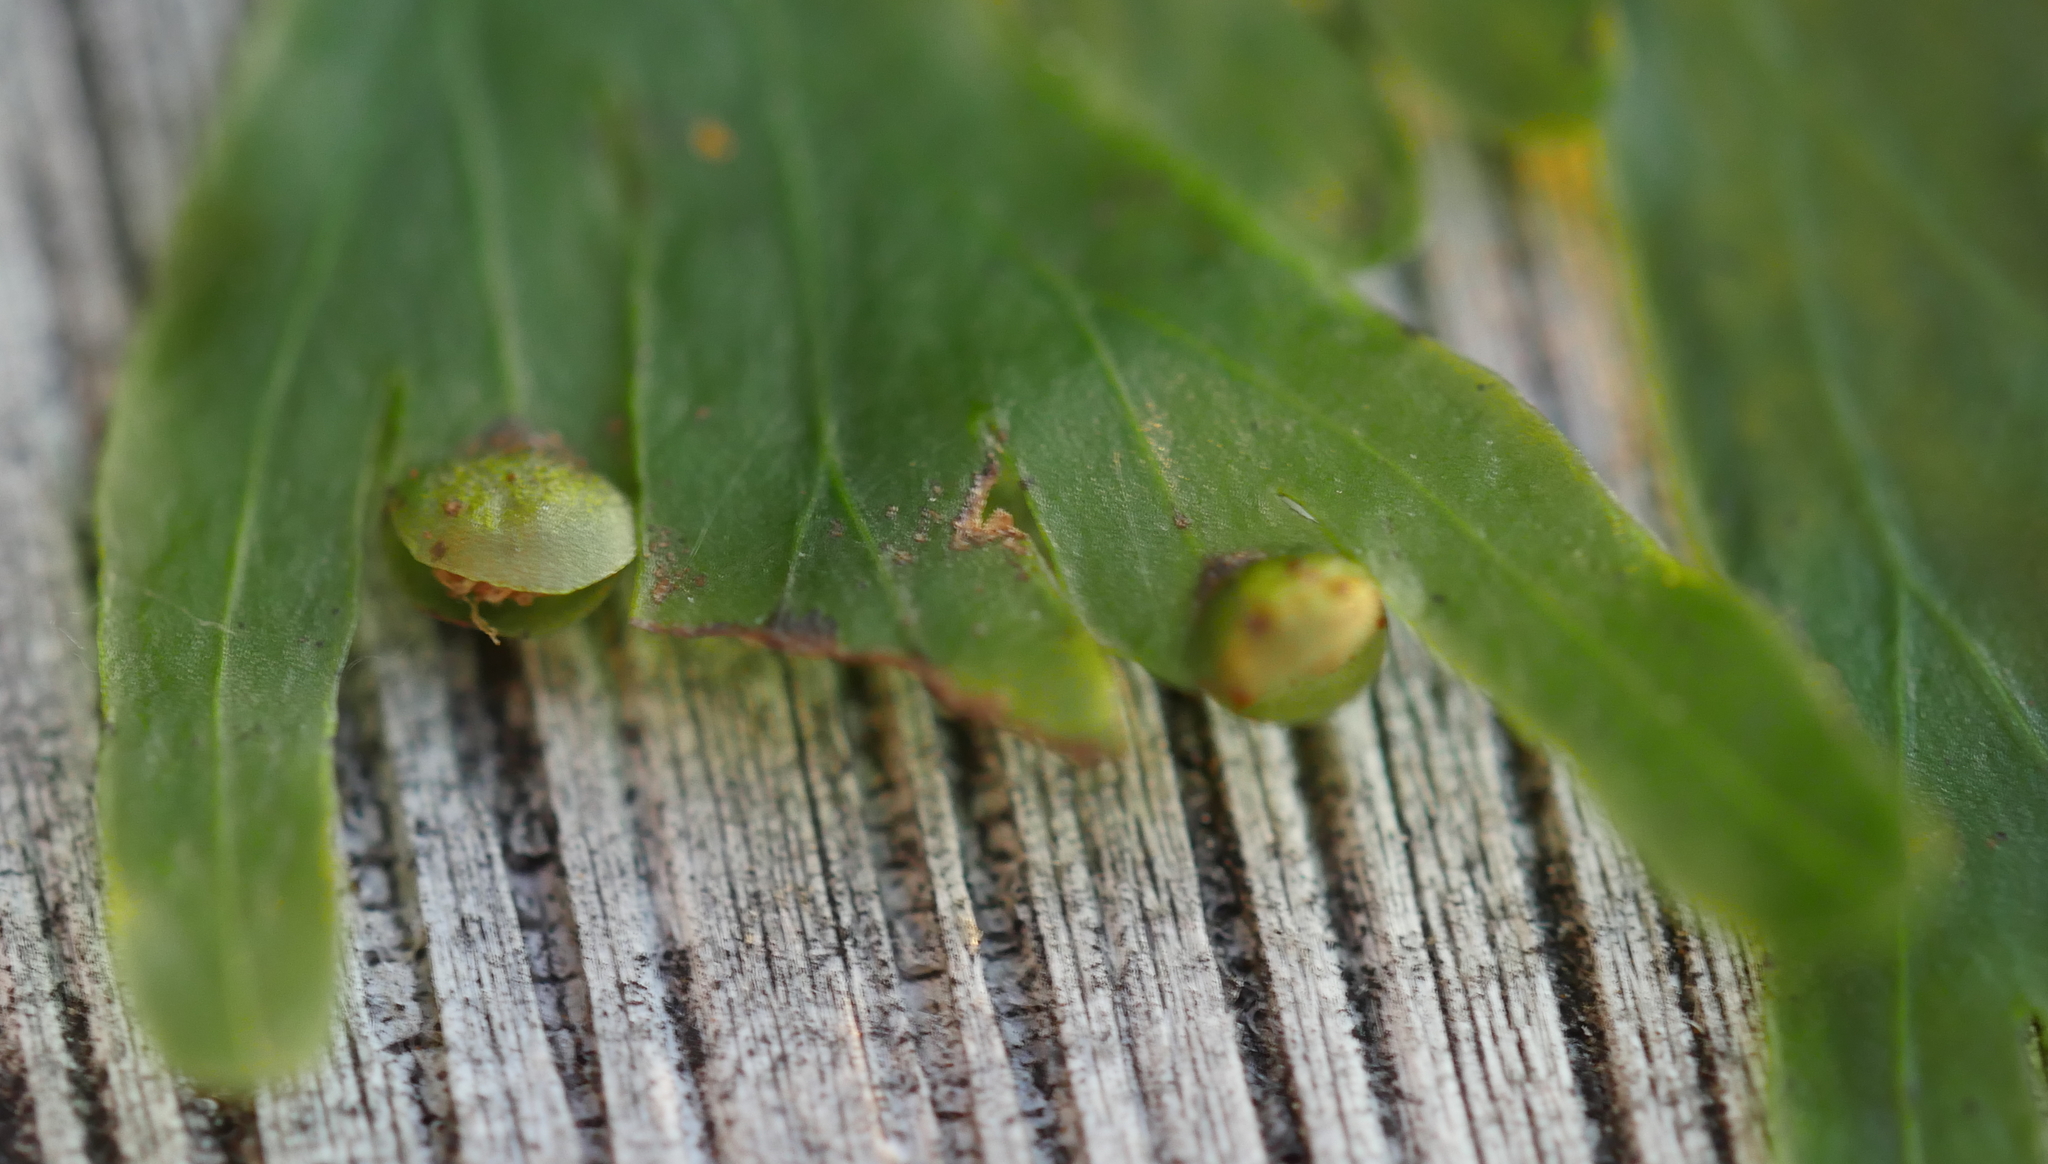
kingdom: Plantae
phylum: Tracheophyta
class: Polypodiopsida
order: Hymenophyllales
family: Hymenophyllaceae
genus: Hymenophyllum
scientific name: Hymenophyllum dilatatum
